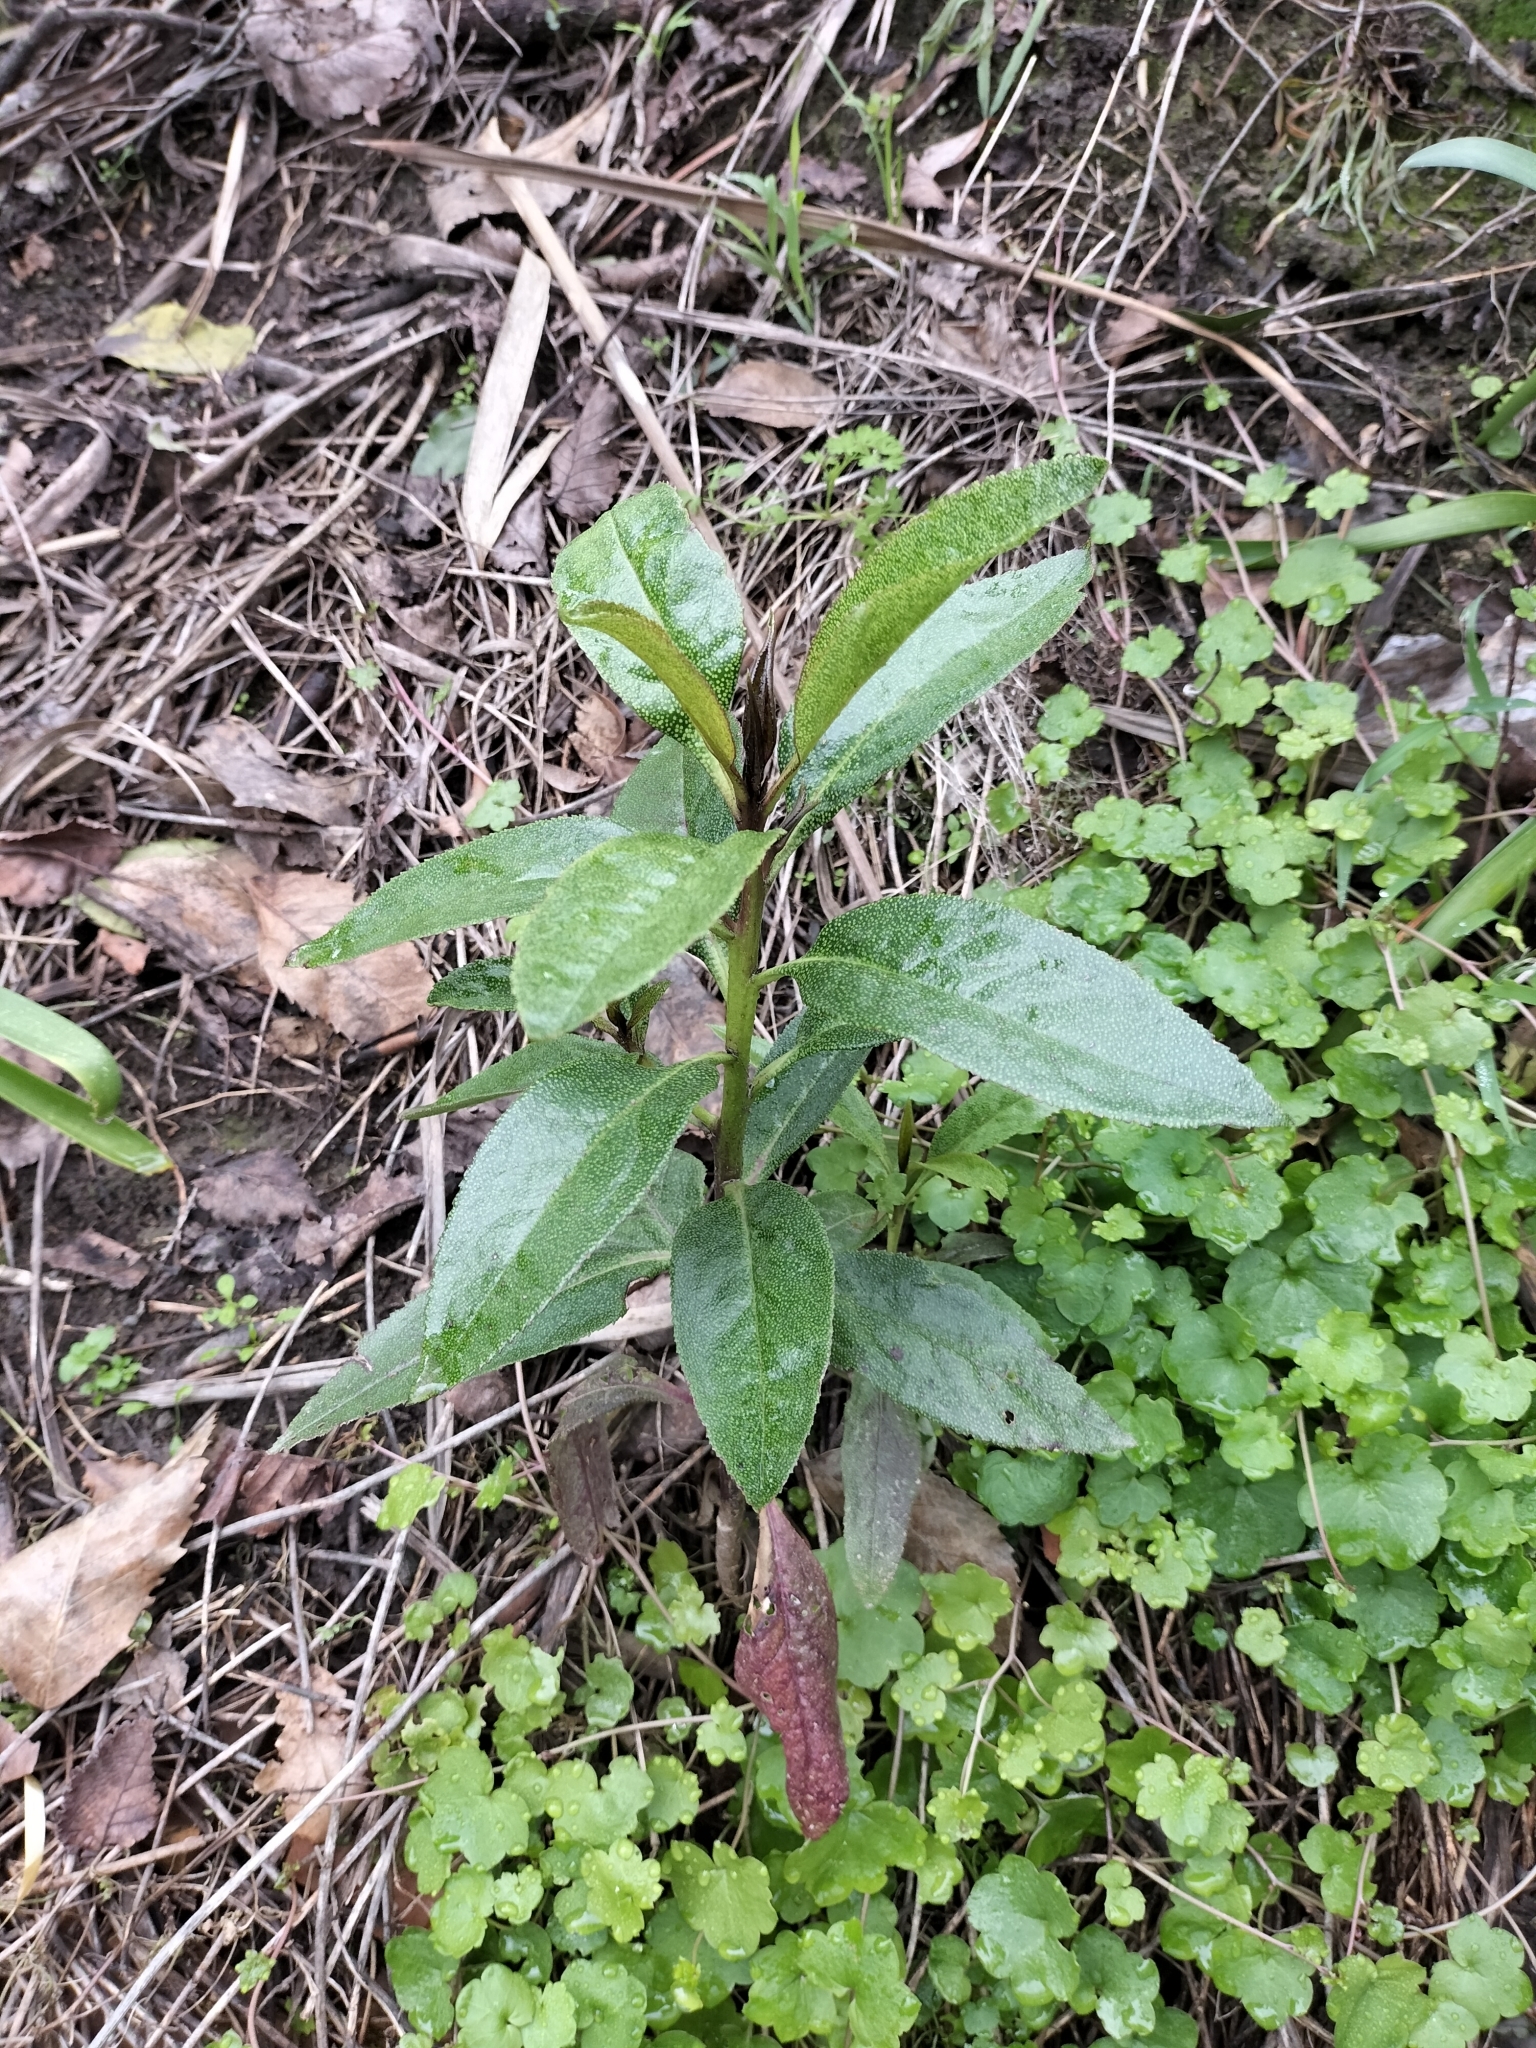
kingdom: Plantae
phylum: Tracheophyta
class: Magnoliopsida
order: Lamiales
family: Scrophulariaceae
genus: Myoporum
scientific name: Myoporum laetum
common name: Ngaio tree
